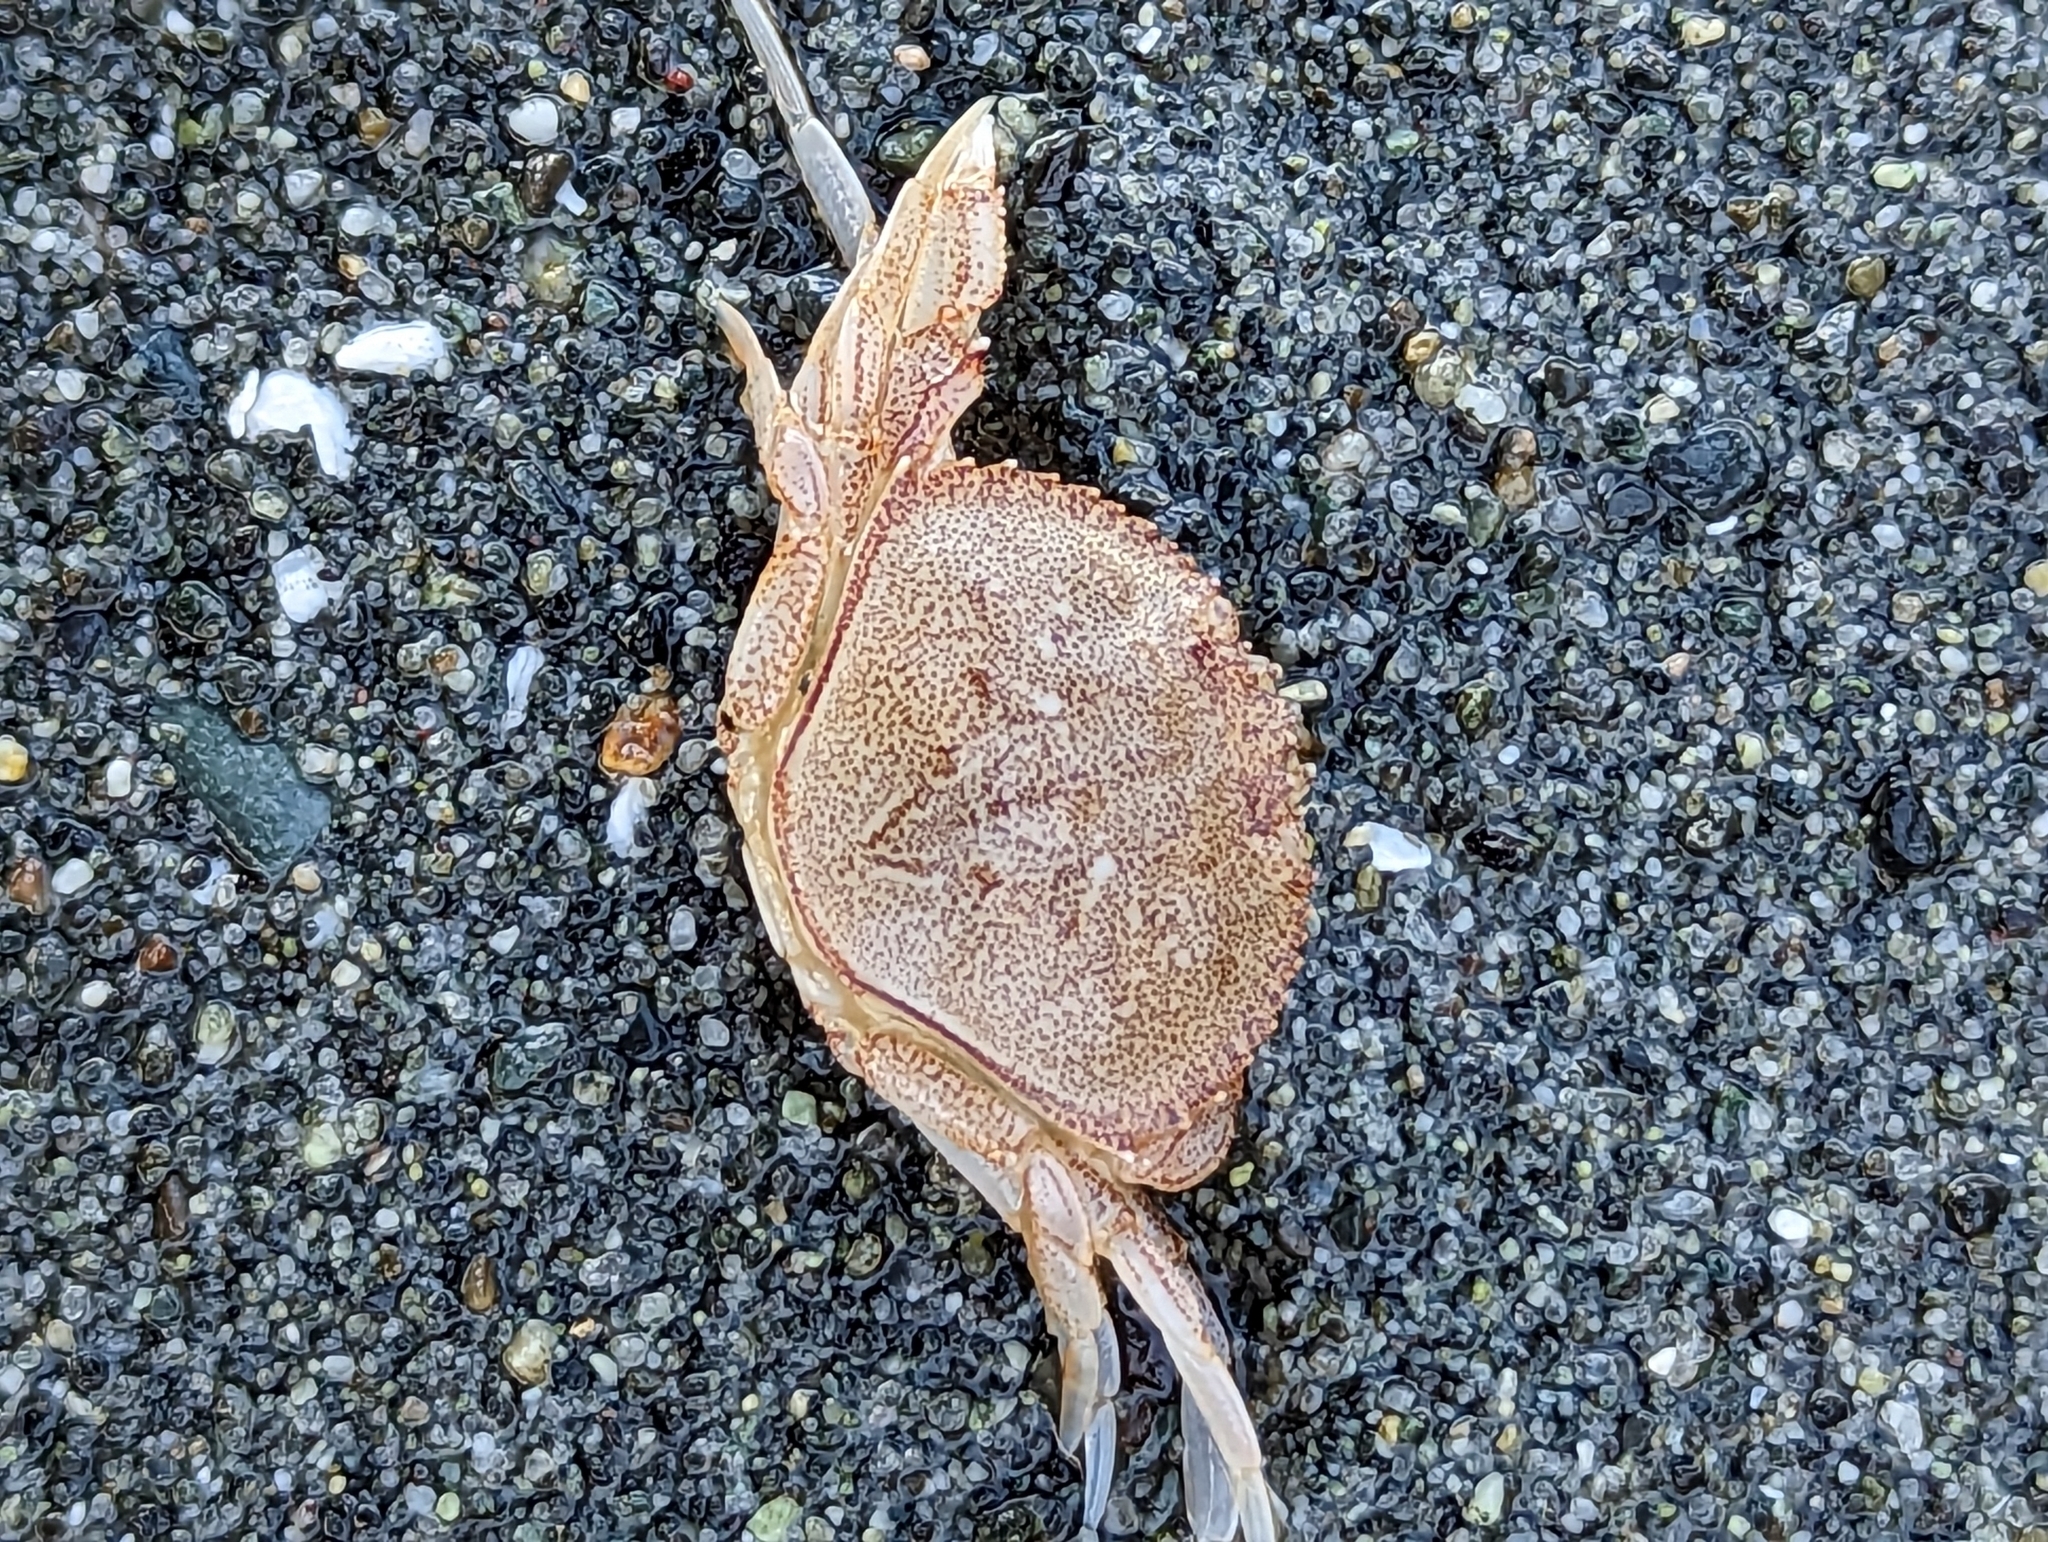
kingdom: Animalia
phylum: Arthropoda
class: Malacostraca
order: Decapoda
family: Cancridae
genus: Metacarcinus
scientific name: Metacarcinus magister
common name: Californian crab
